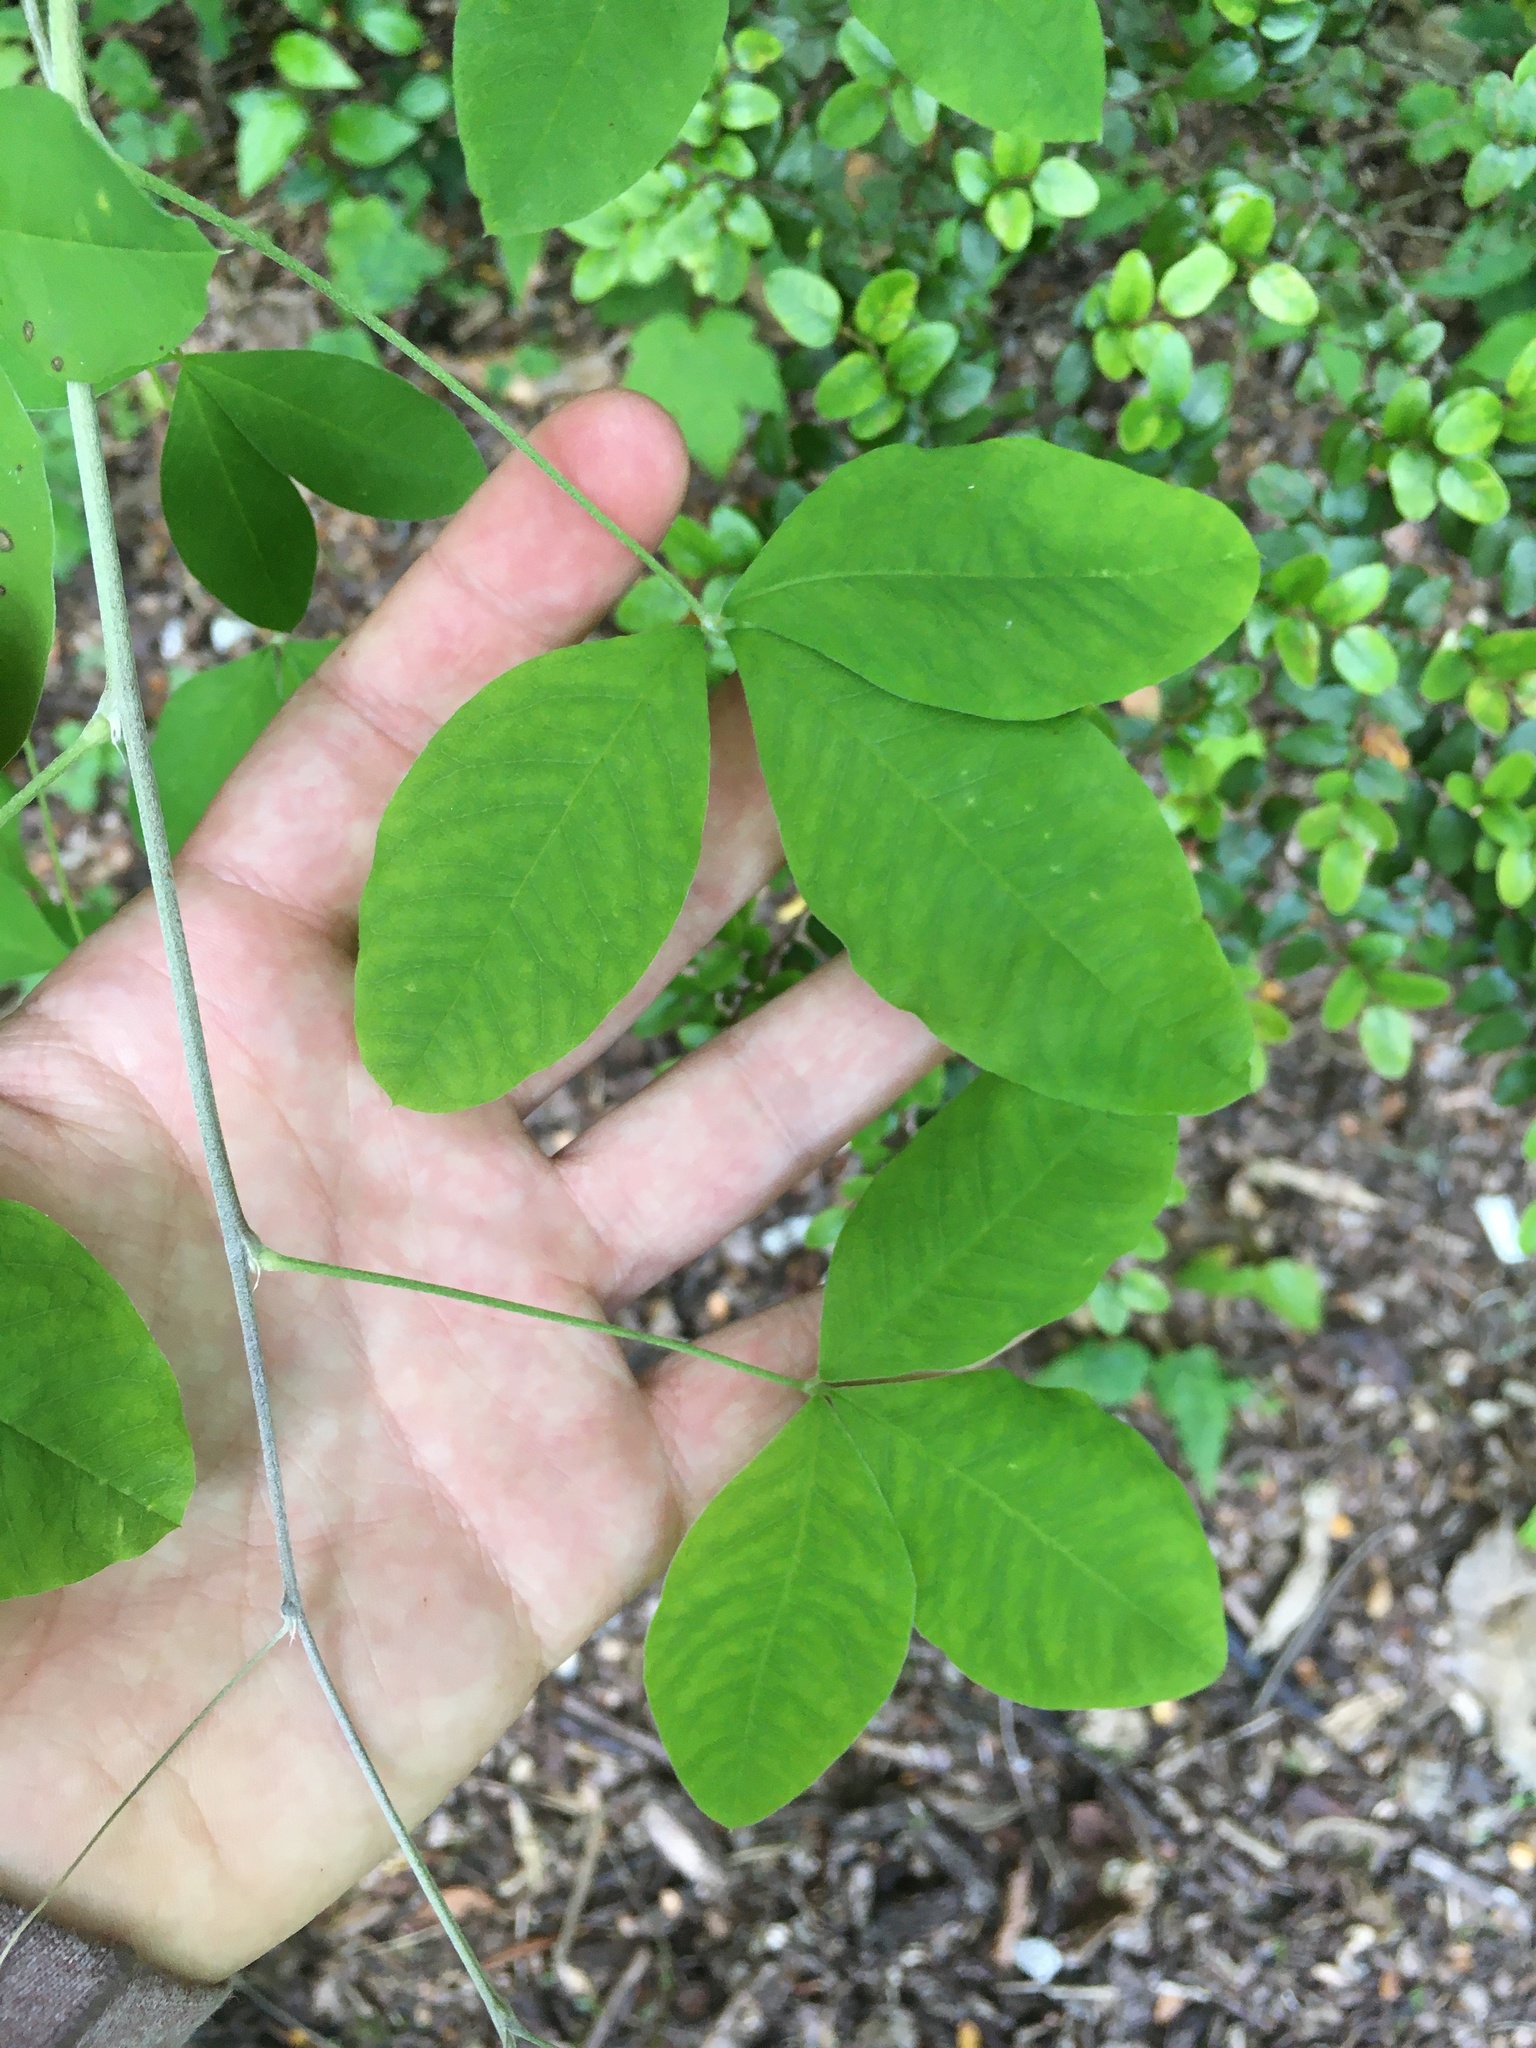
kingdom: Plantae
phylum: Tracheophyta
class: Magnoliopsida
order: Fabales
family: Fabaceae
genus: Laburnum
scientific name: Laburnum anagyroides
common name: Laburnum
